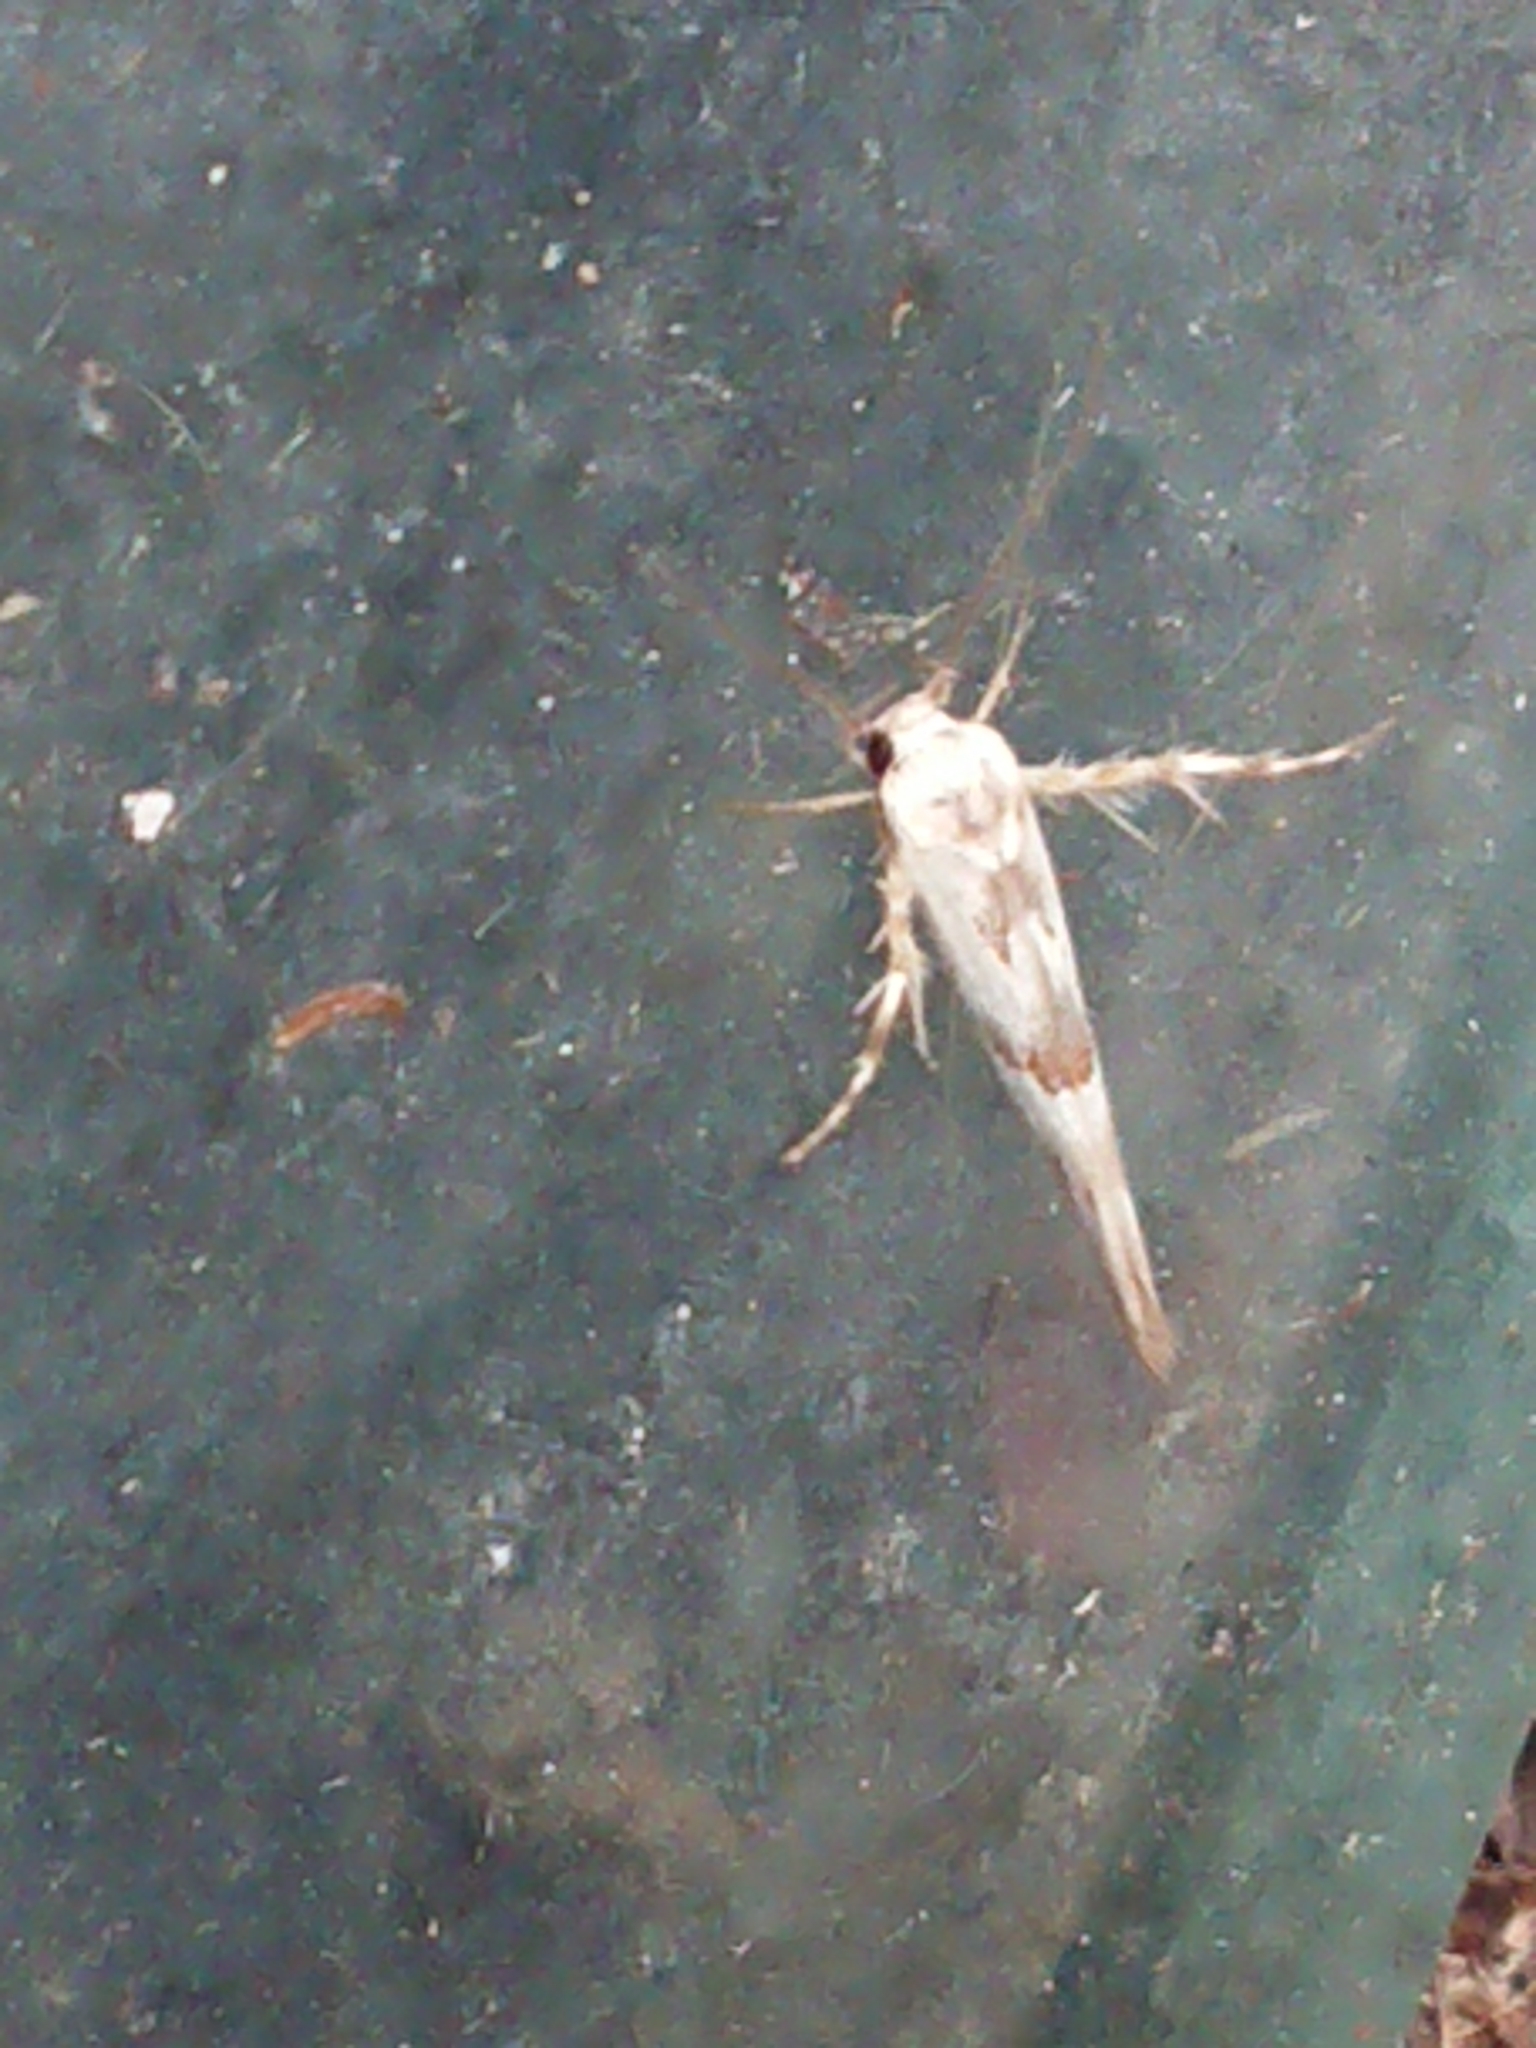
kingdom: Animalia
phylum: Arthropoda
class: Insecta
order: Lepidoptera
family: Stathmopodidae
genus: Stathmopoda
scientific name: Stathmopoda melanochra
